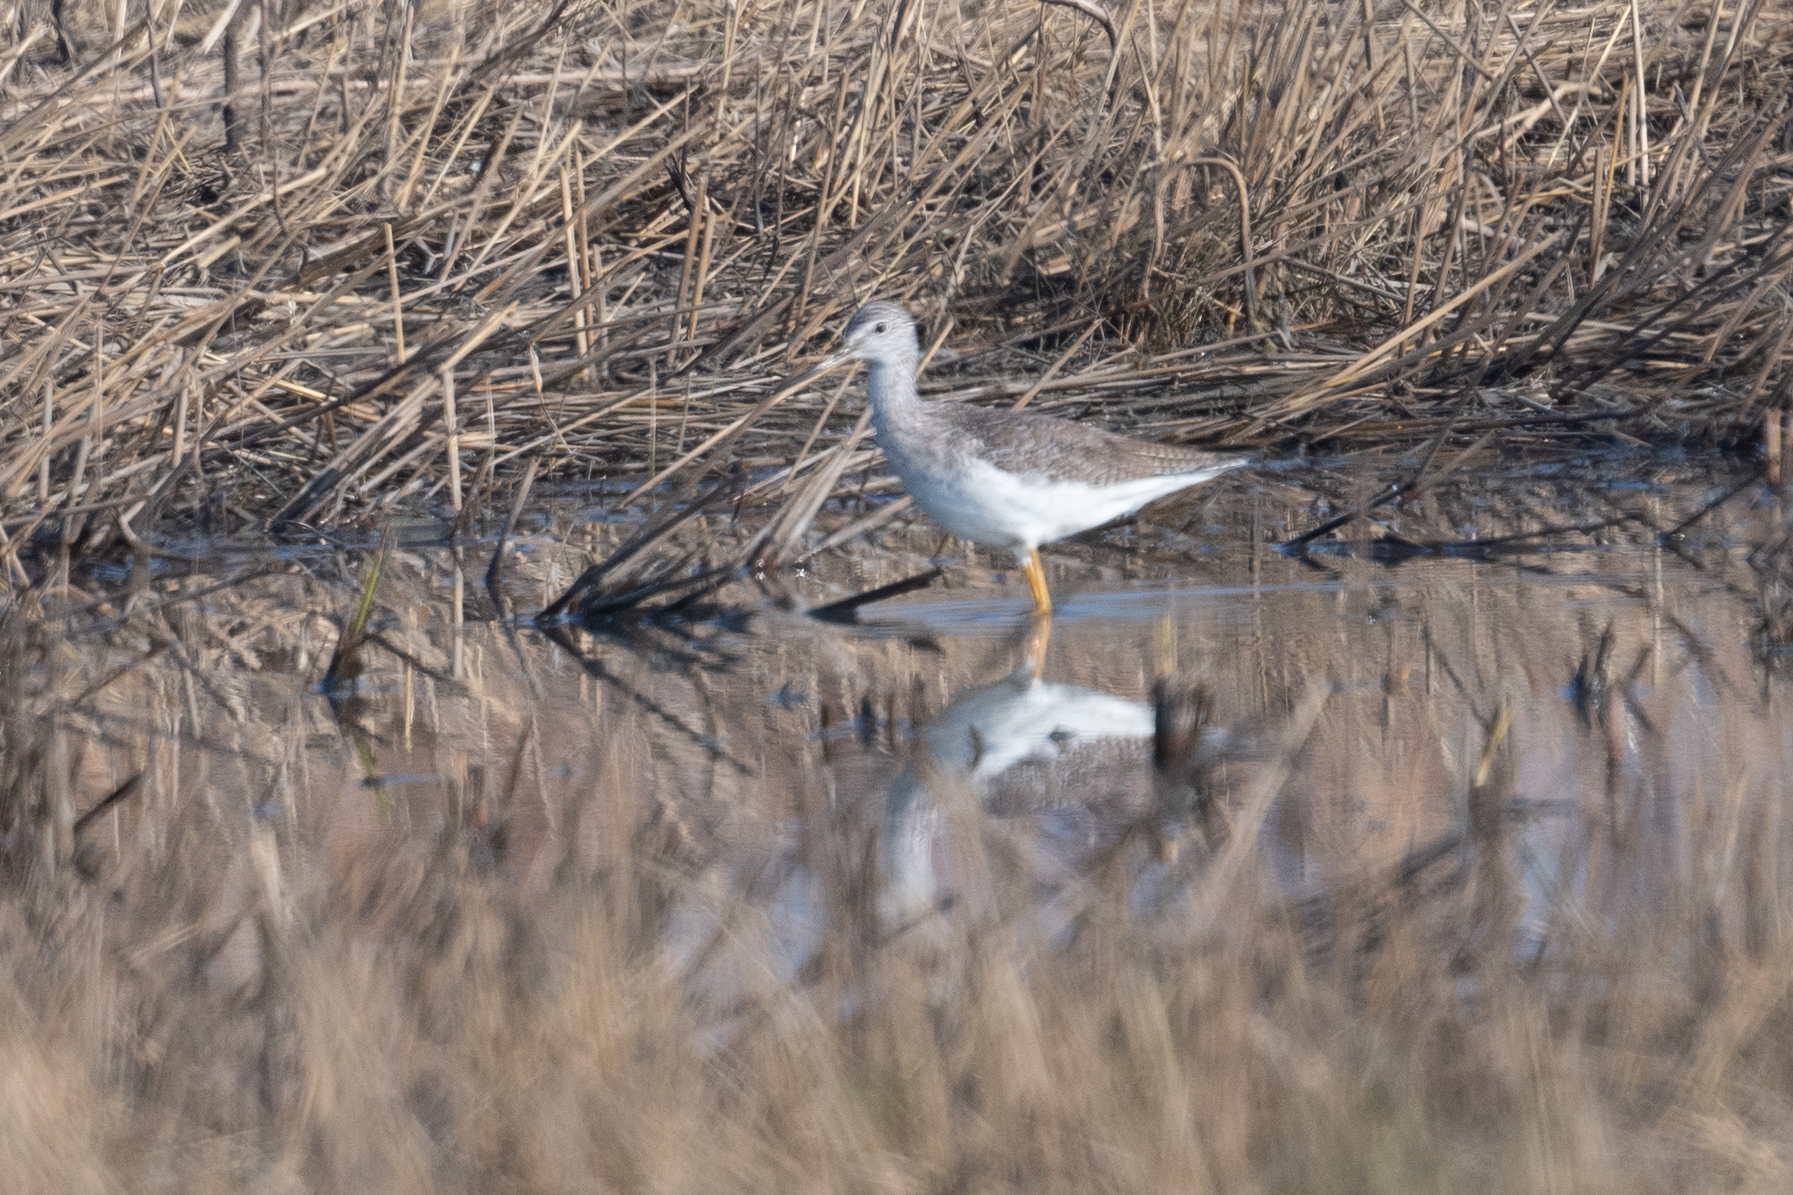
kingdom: Animalia
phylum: Chordata
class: Aves
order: Charadriiformes
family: Scolopacidae
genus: Tringa
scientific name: Tringa melanoleuca
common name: Greater yellowlegs
